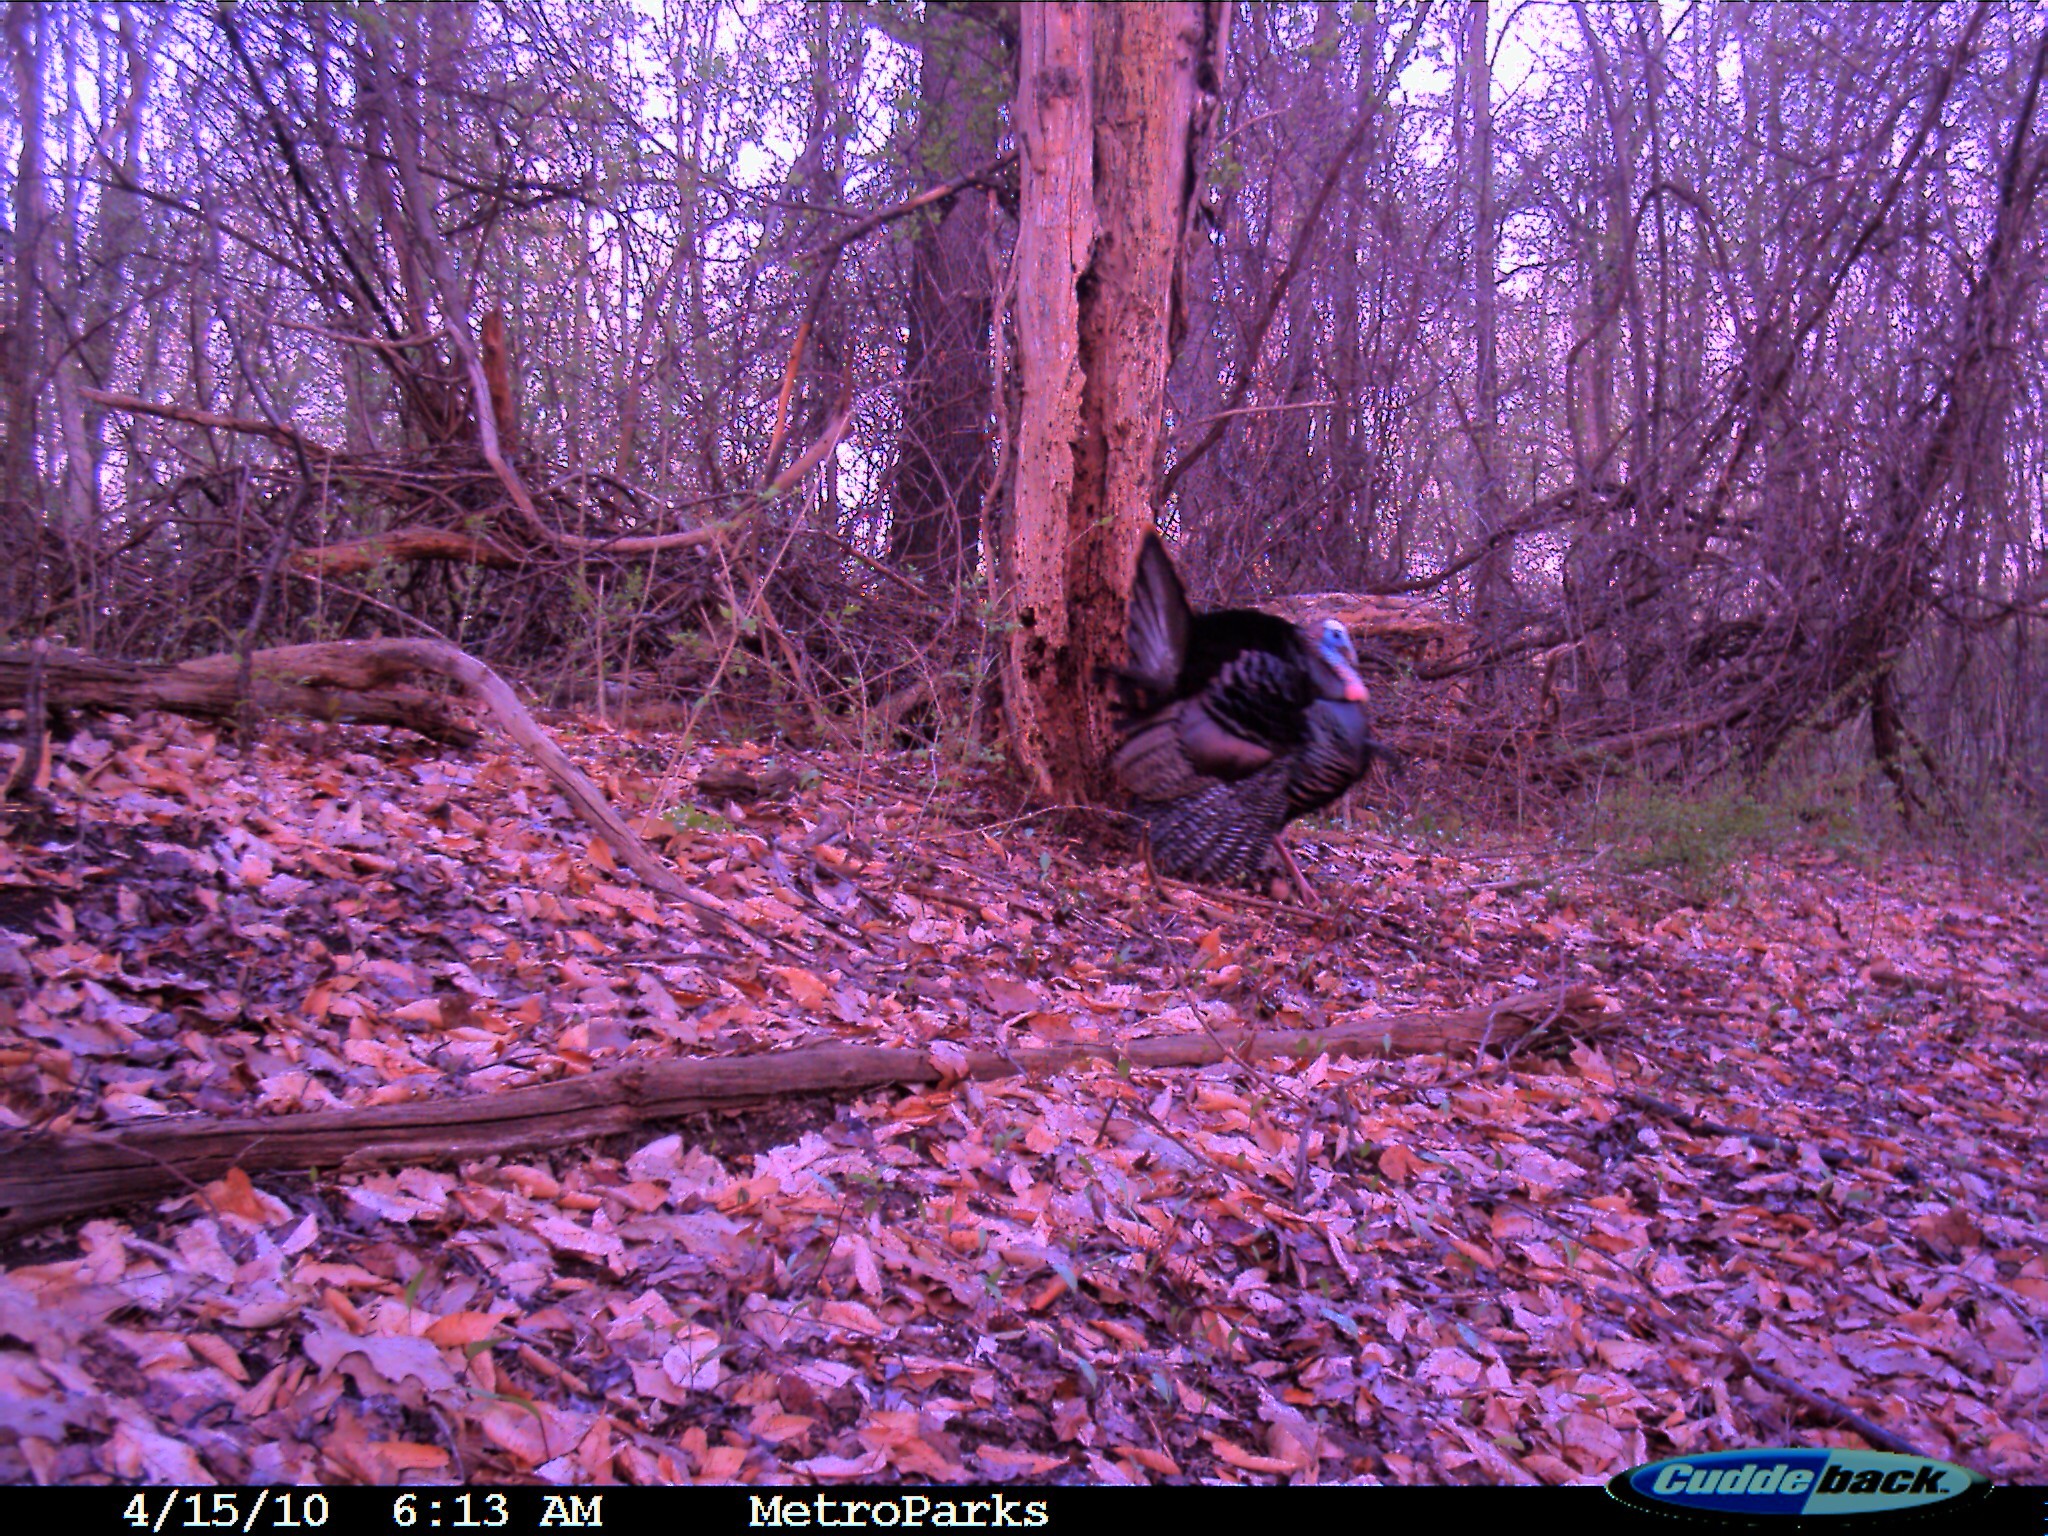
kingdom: Animalia
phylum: Chordata
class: Aves
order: Galliformes
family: Phasianidae
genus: Meleagris
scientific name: Meleagris gallopavo
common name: Wild turkey
